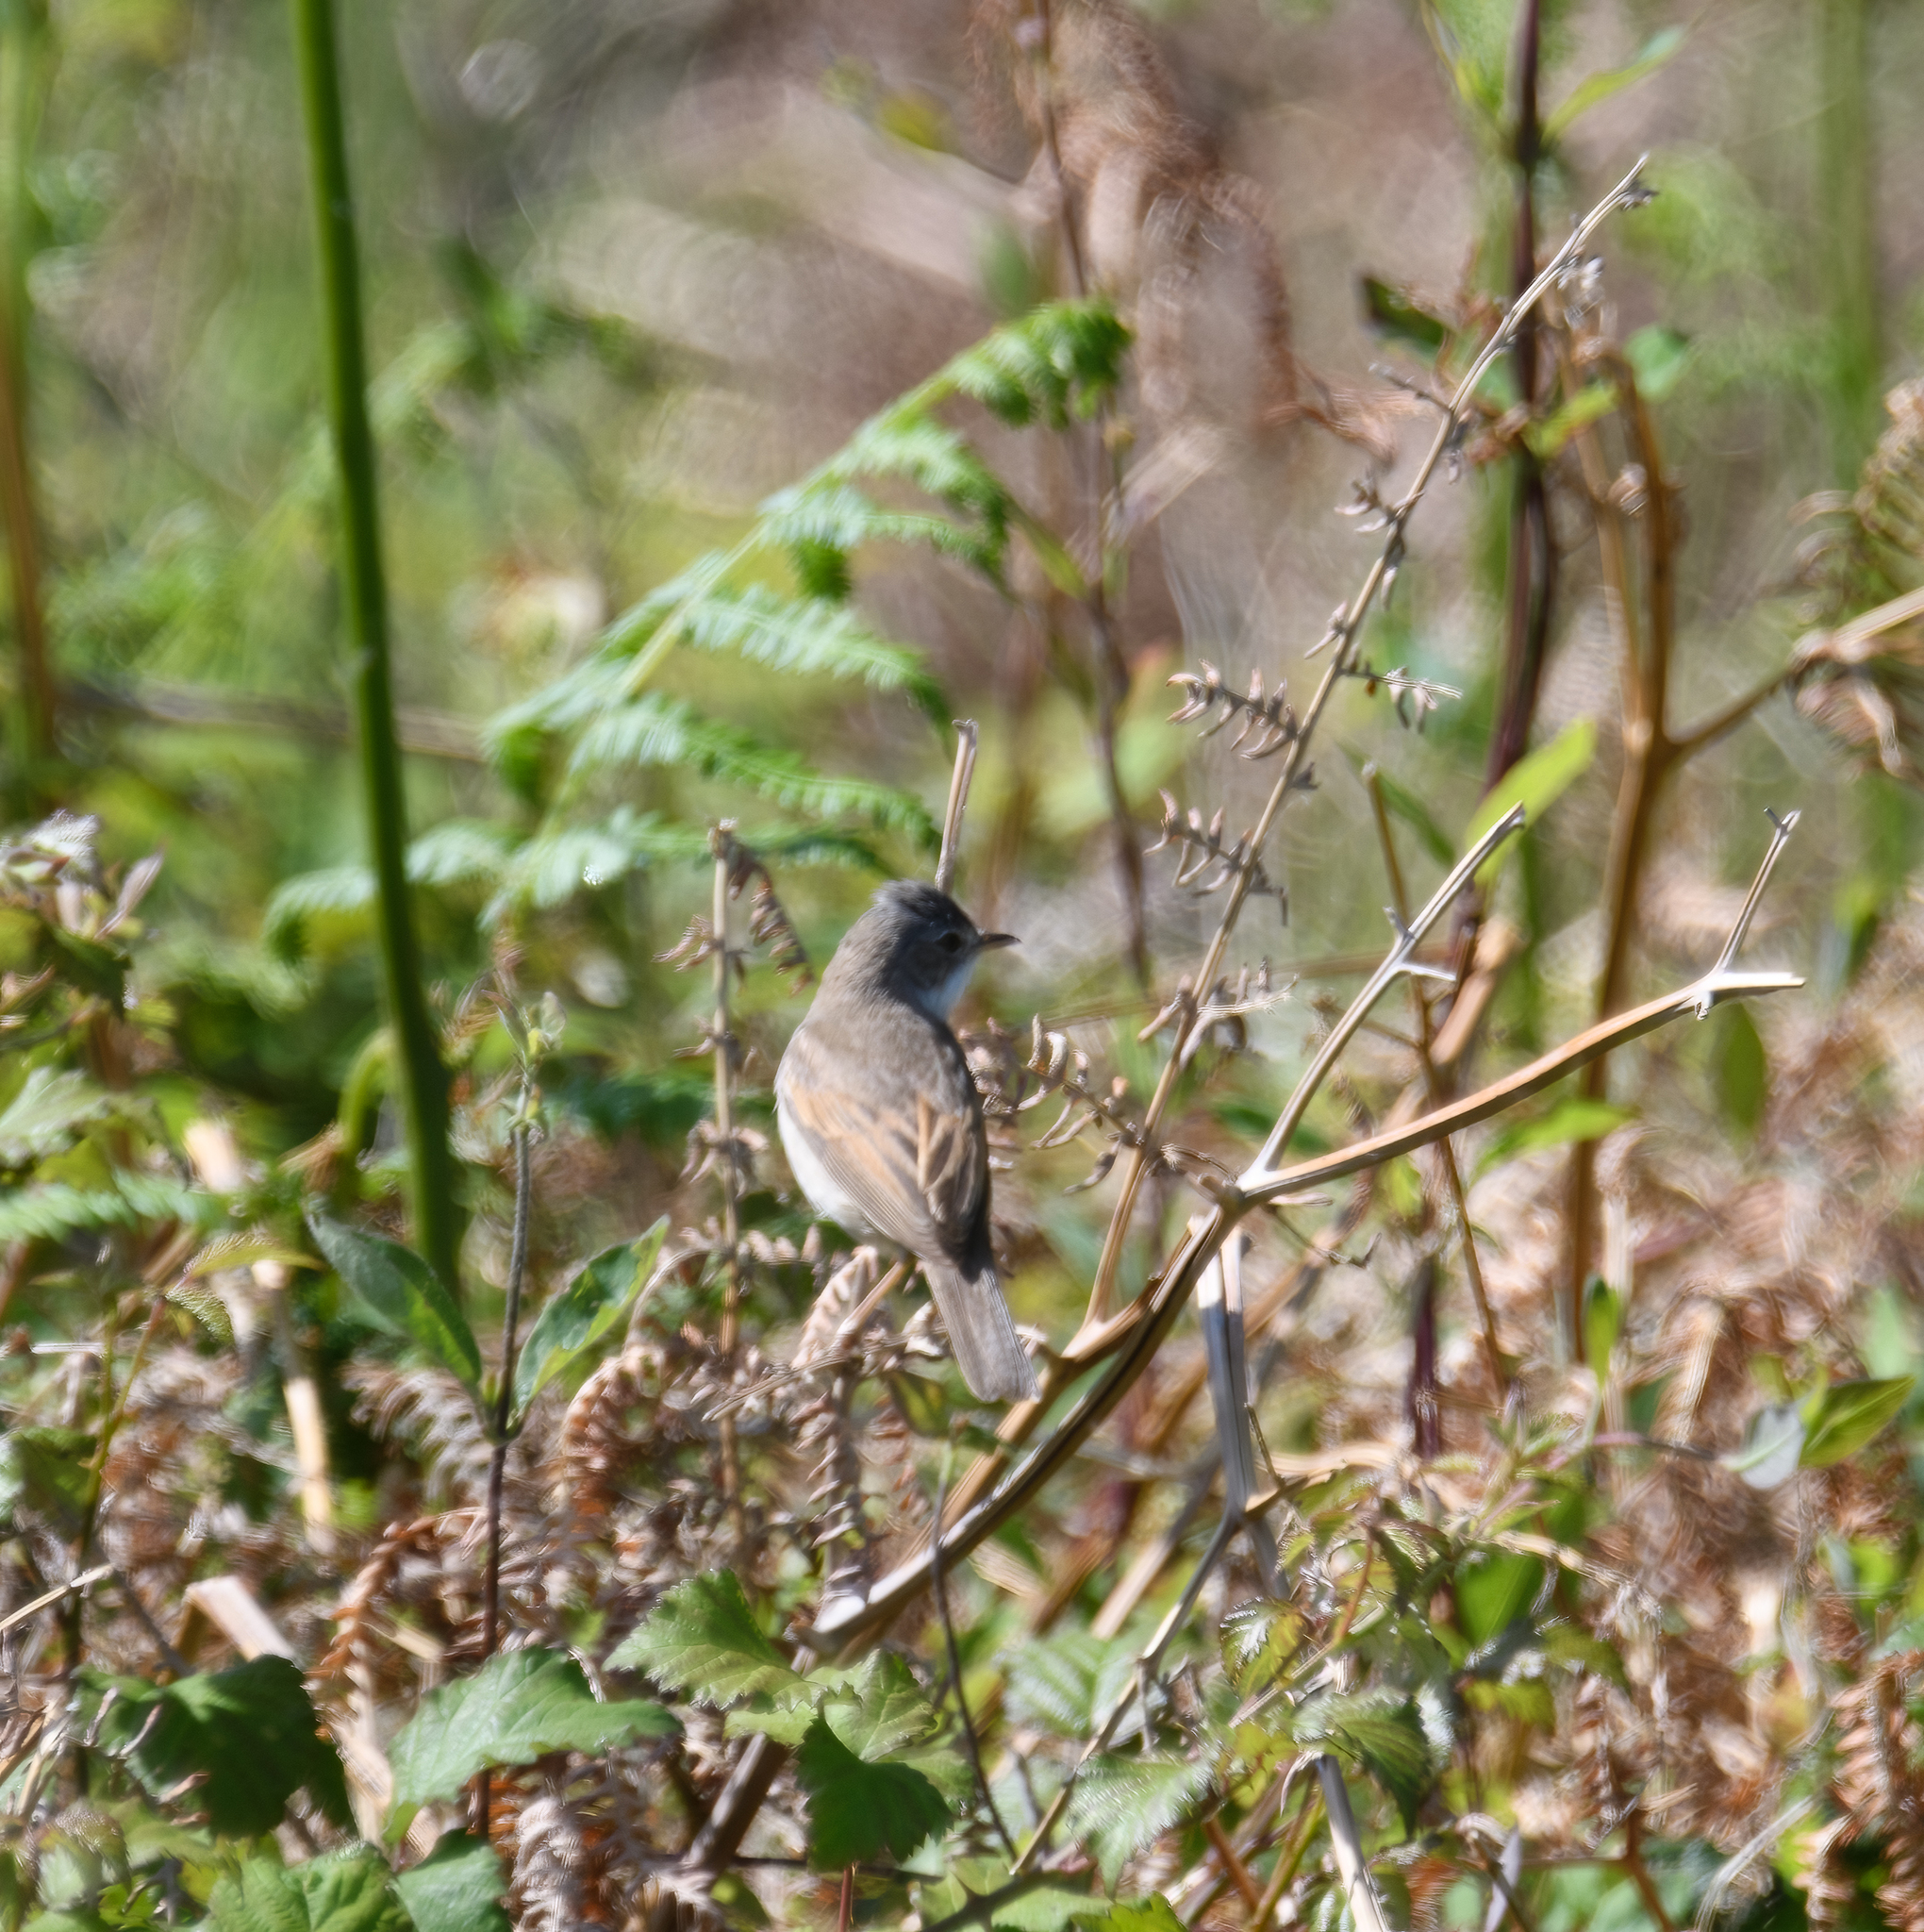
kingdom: Animalia
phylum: Chordata
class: Aves
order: Passeriformes
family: Sylviidae
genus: Sylvia
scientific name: Sylvia communis
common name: Common whitethroat
